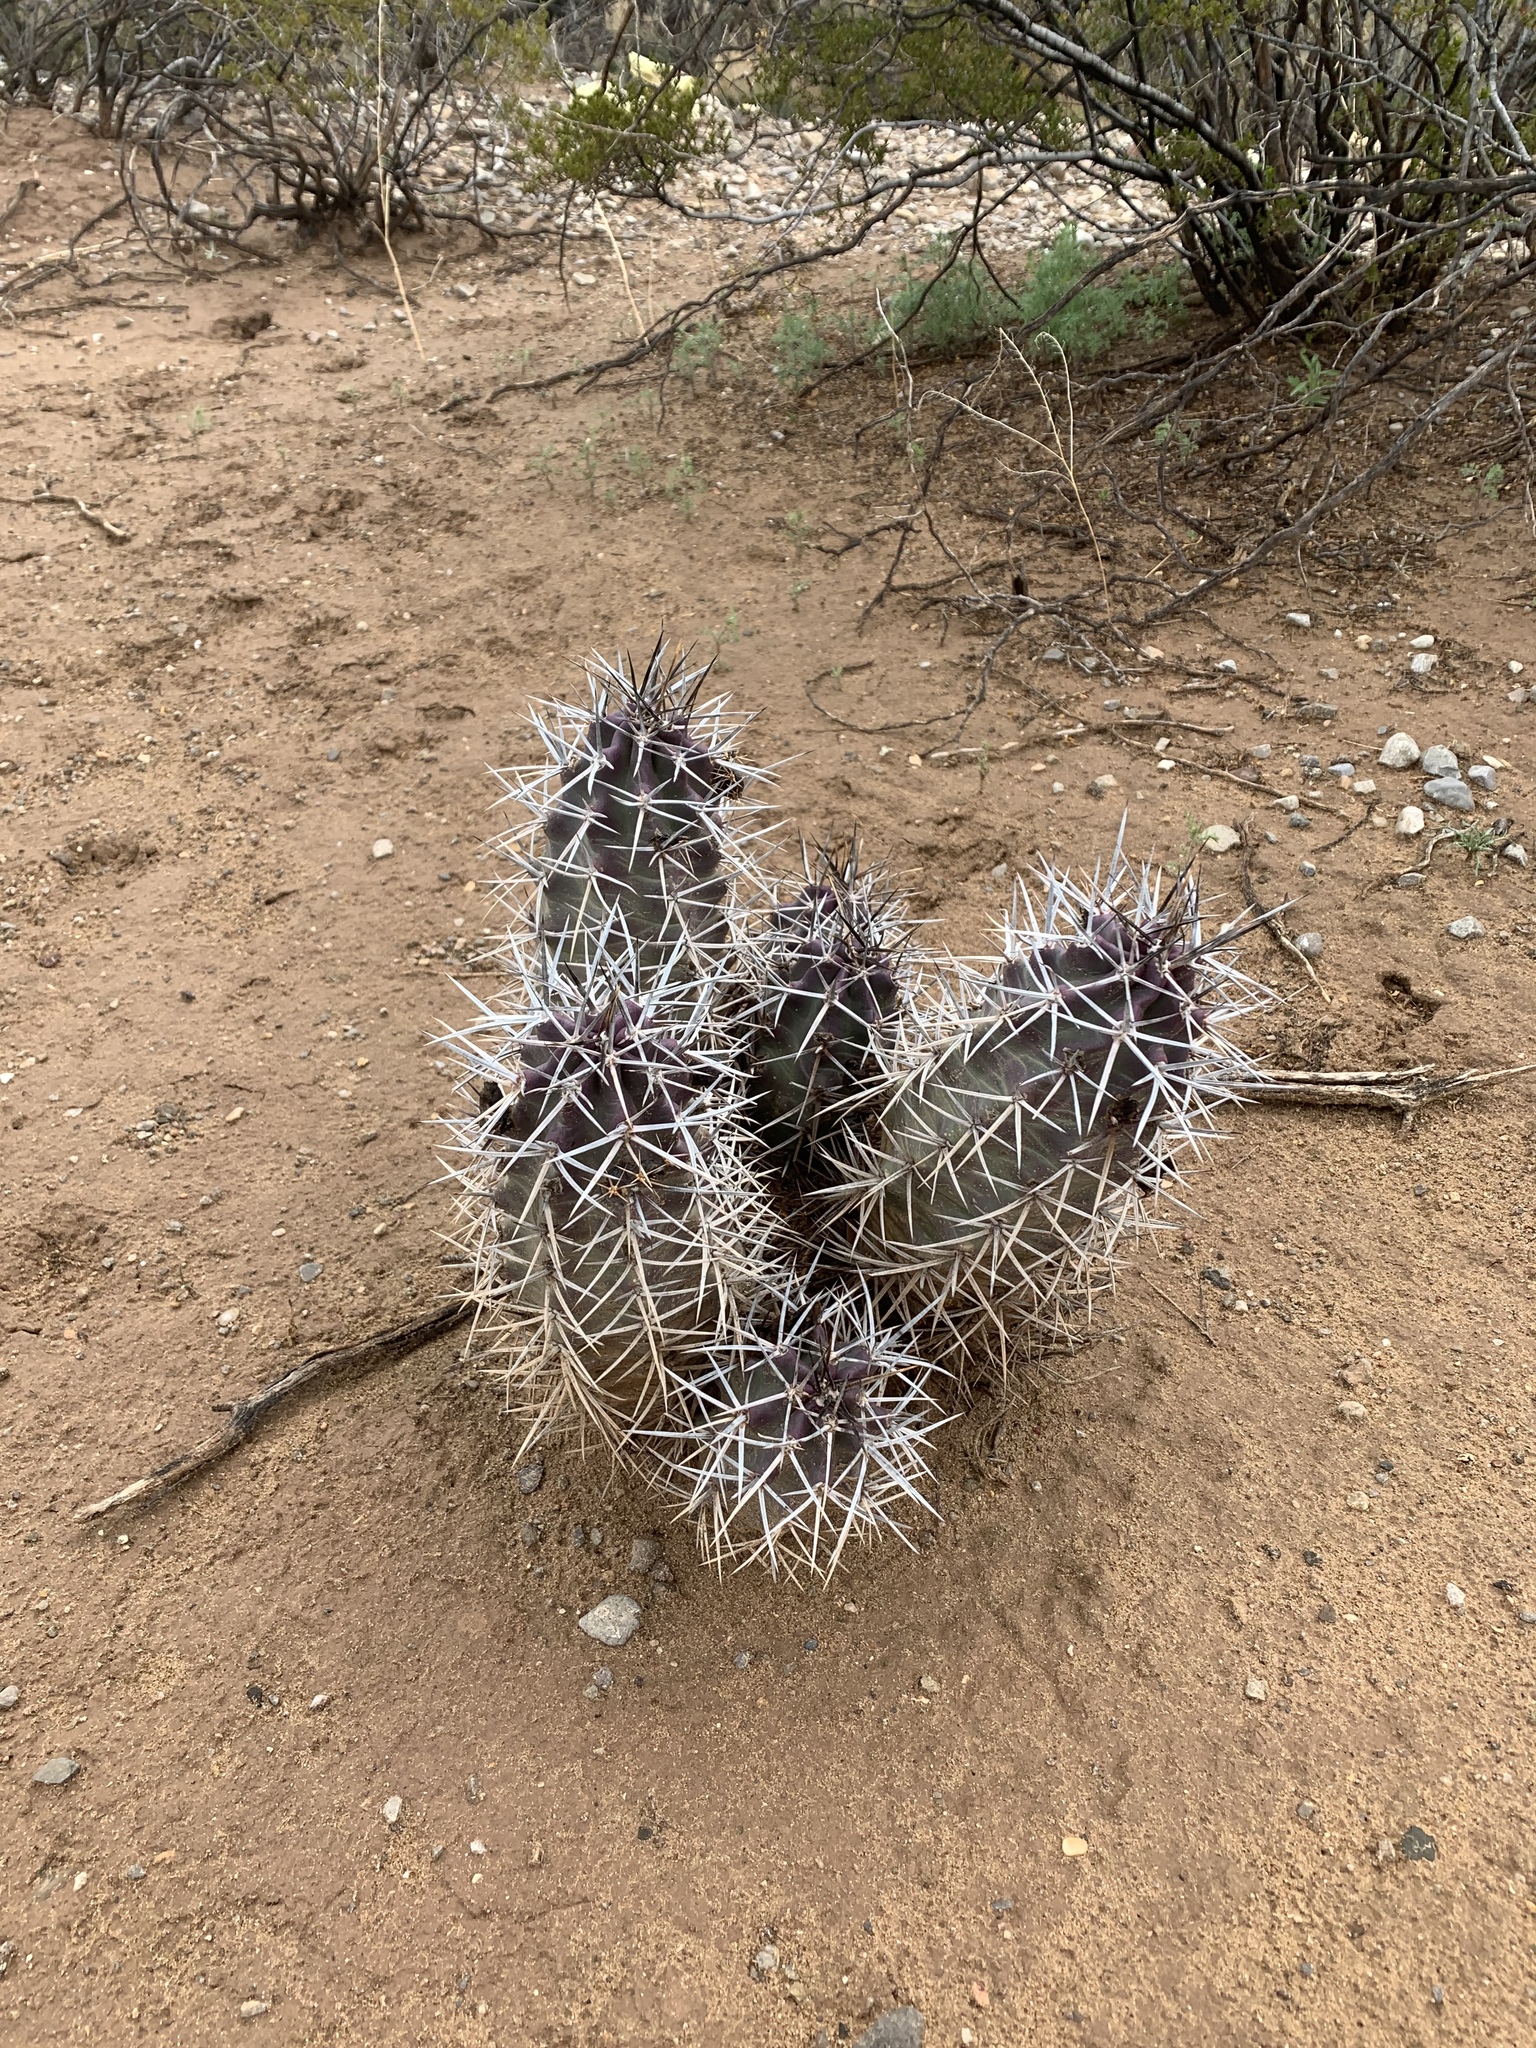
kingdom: Plantae
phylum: Tracheophyta
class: Magnoliopsida
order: Caryophyllales
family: Cactaceae
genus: Echinocereus
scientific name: Echinocereus triglochidiatus
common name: Claretcup hedgehog
